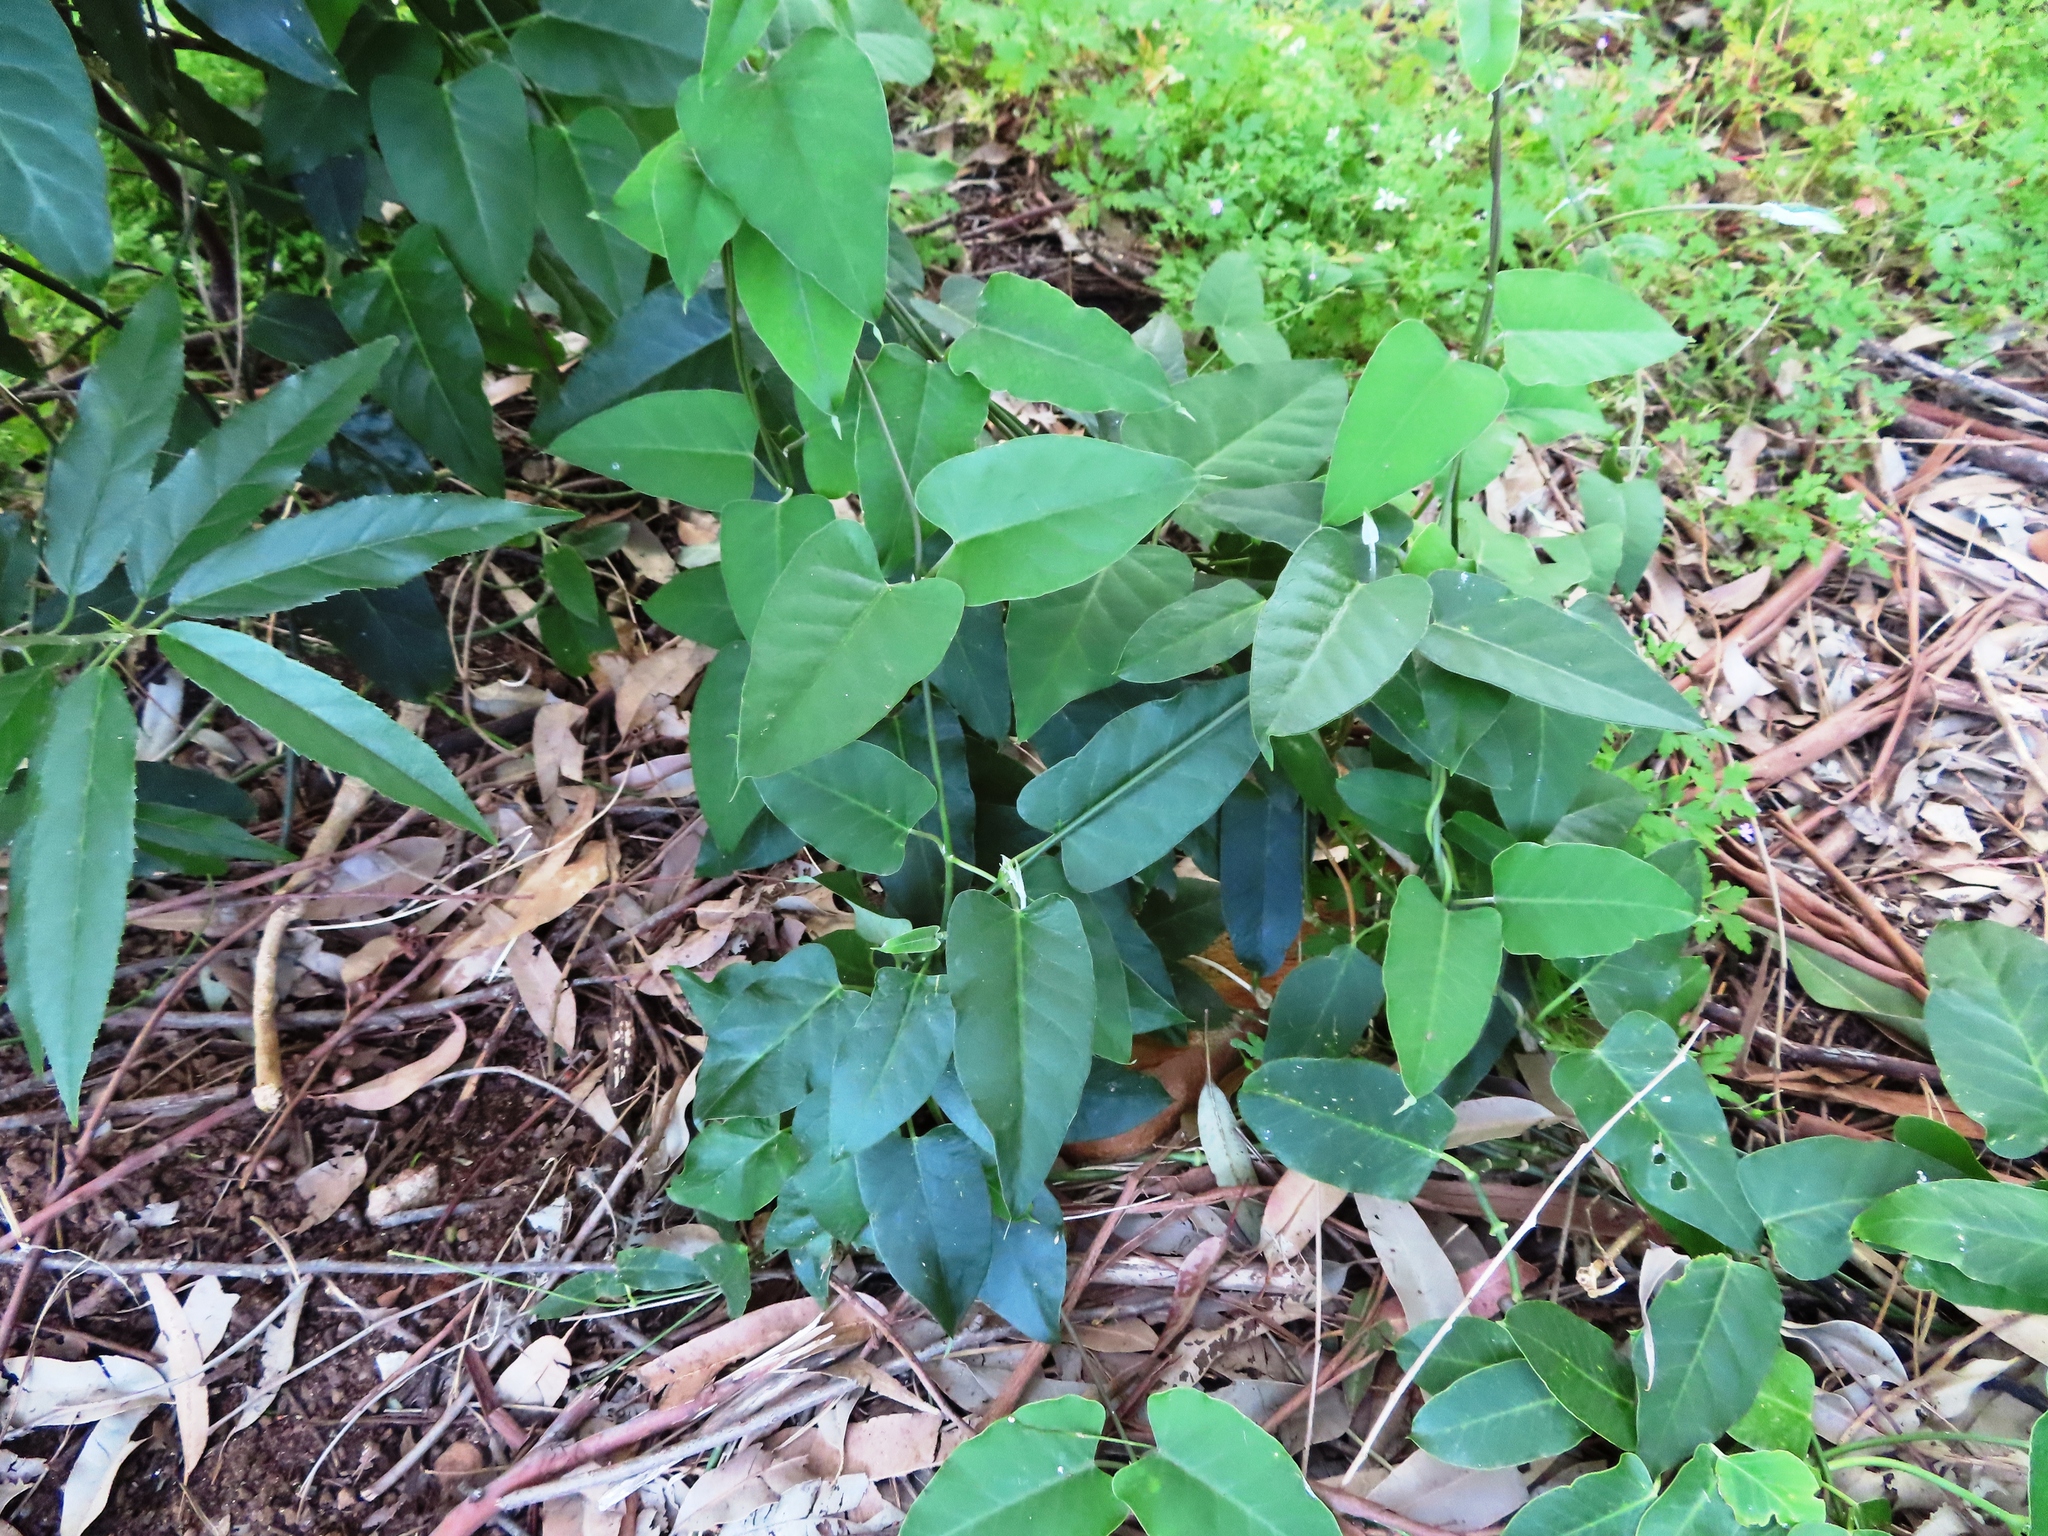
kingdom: Plantae
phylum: Tracheophyta
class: Magnoliopsida
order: Gentianales
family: Apocynaceae
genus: Araujia
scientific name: Araujia sericifera
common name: White bladderflower
